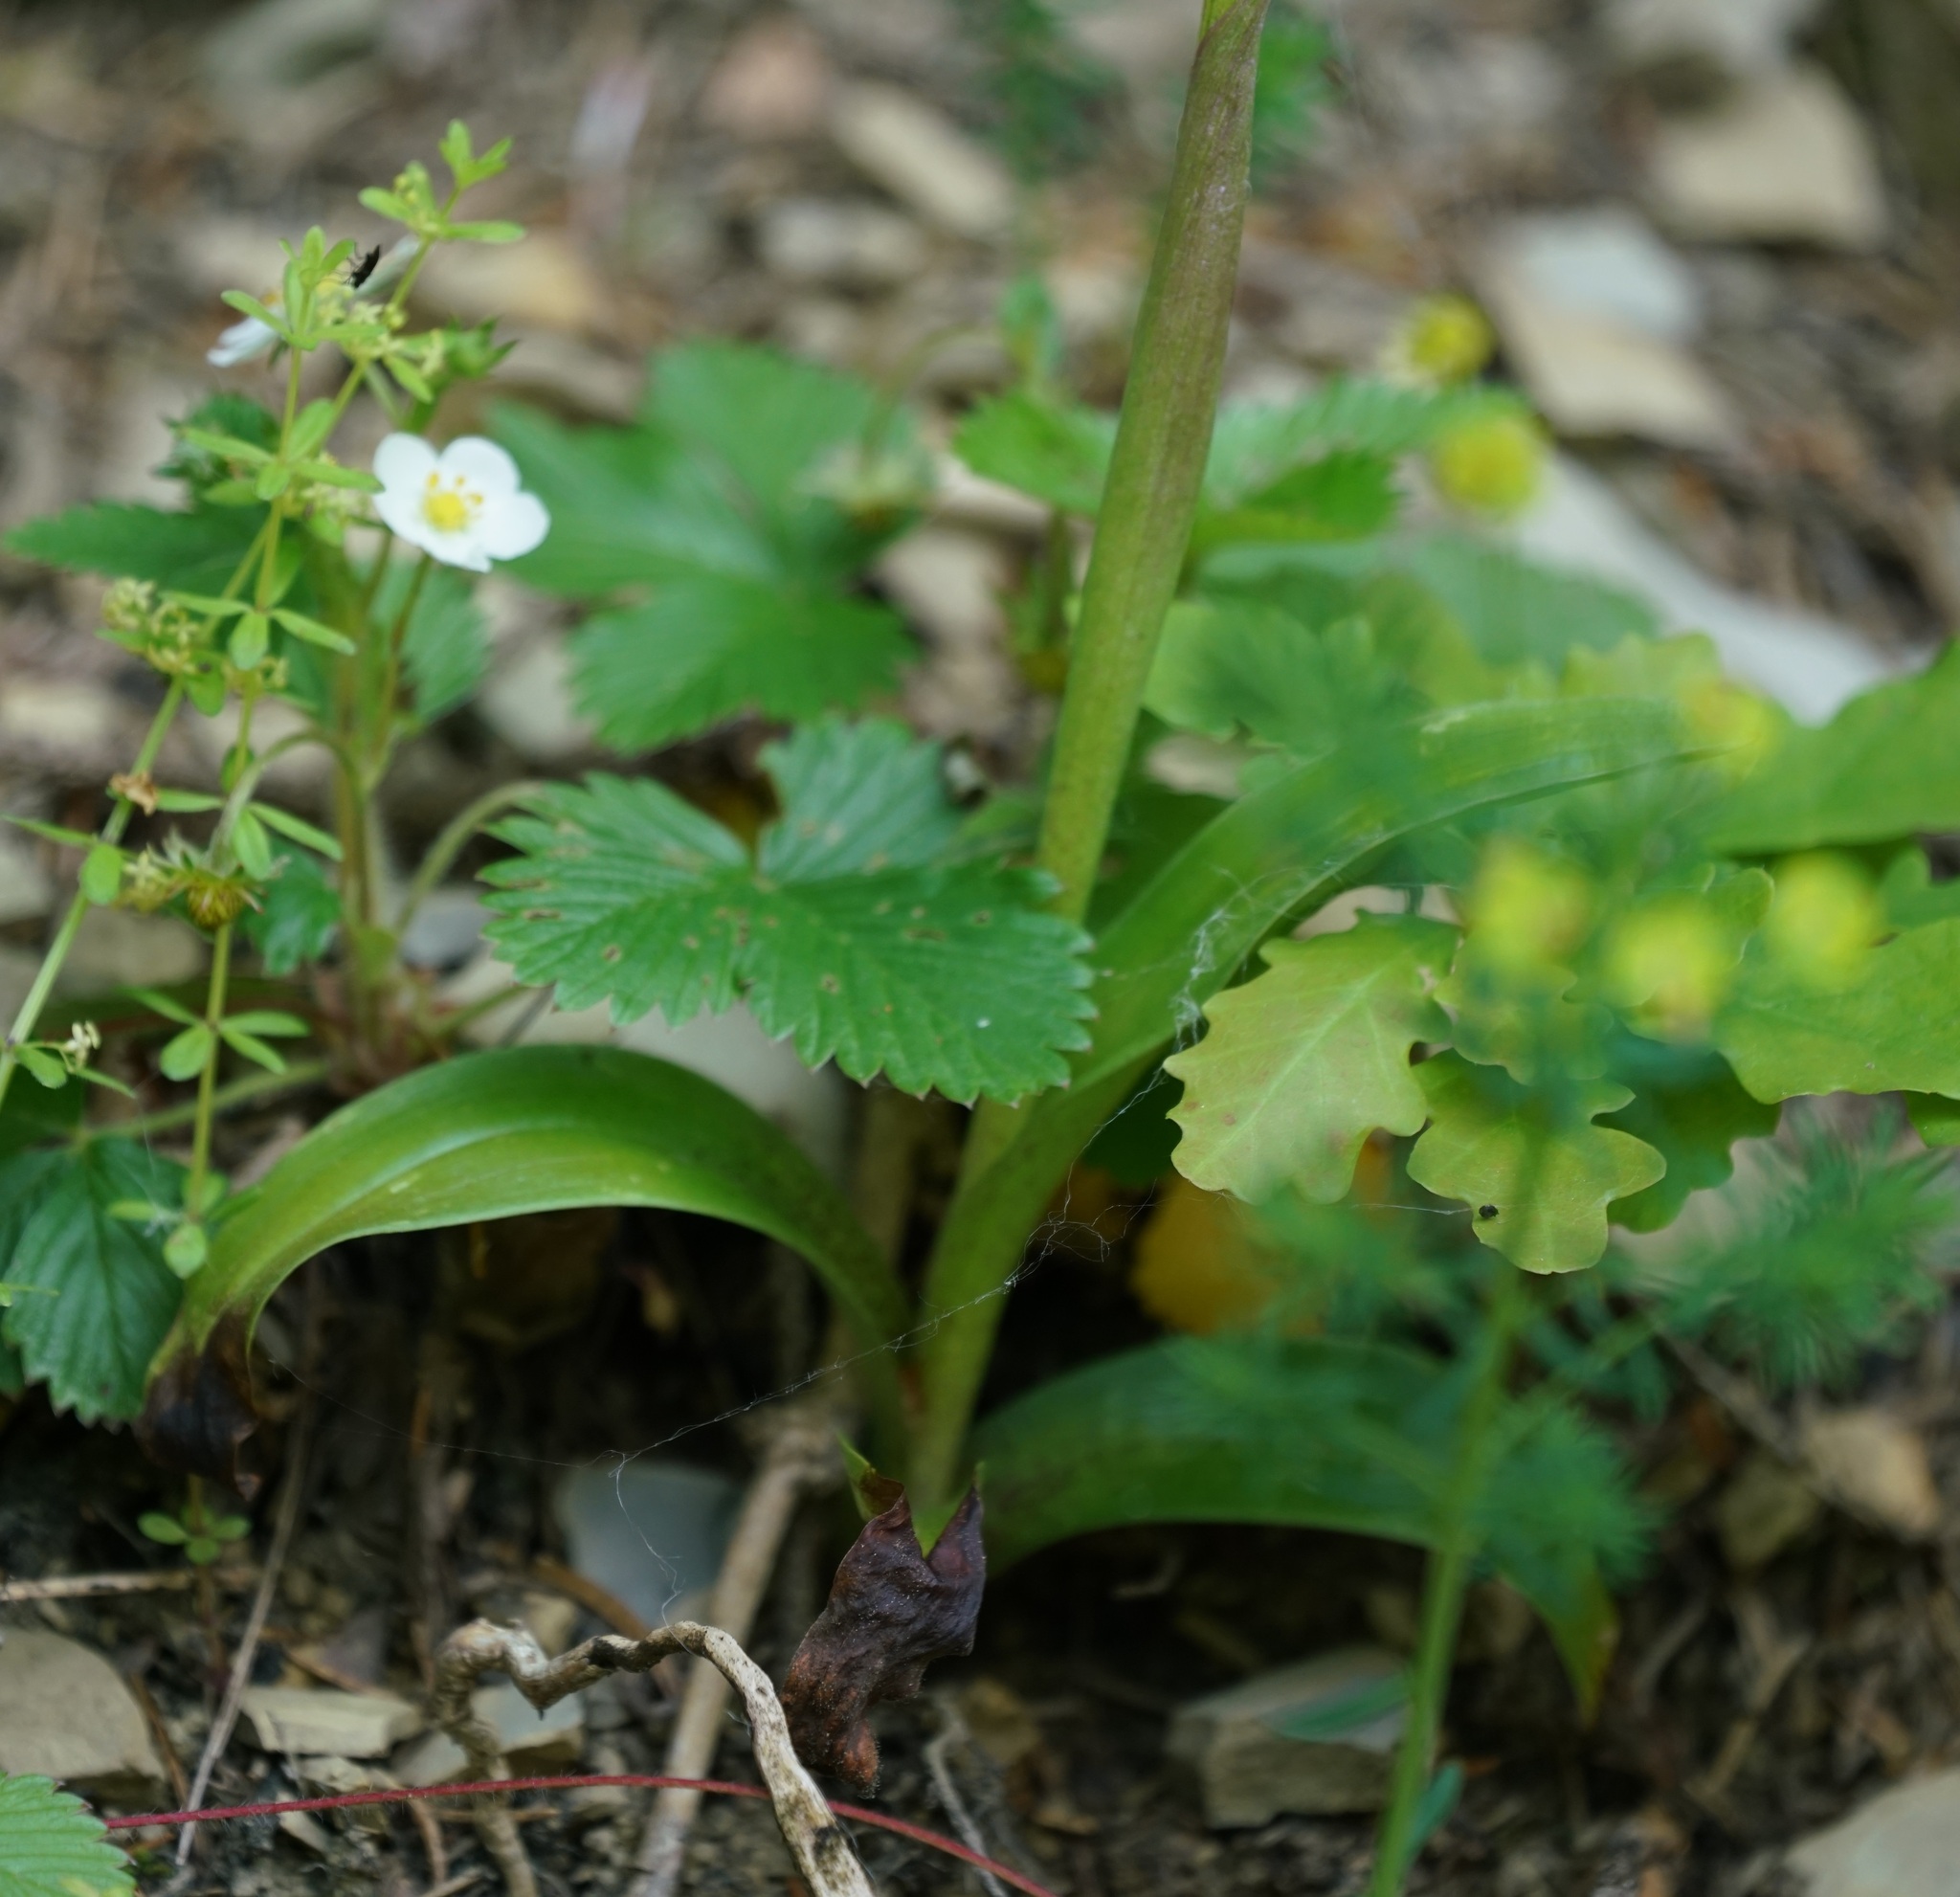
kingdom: Plantae
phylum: Tracheophyta
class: Liliopsida
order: Asparagales
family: Orchidaceae
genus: Orchis
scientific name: Orchis mascula
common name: Early-purple orchid
